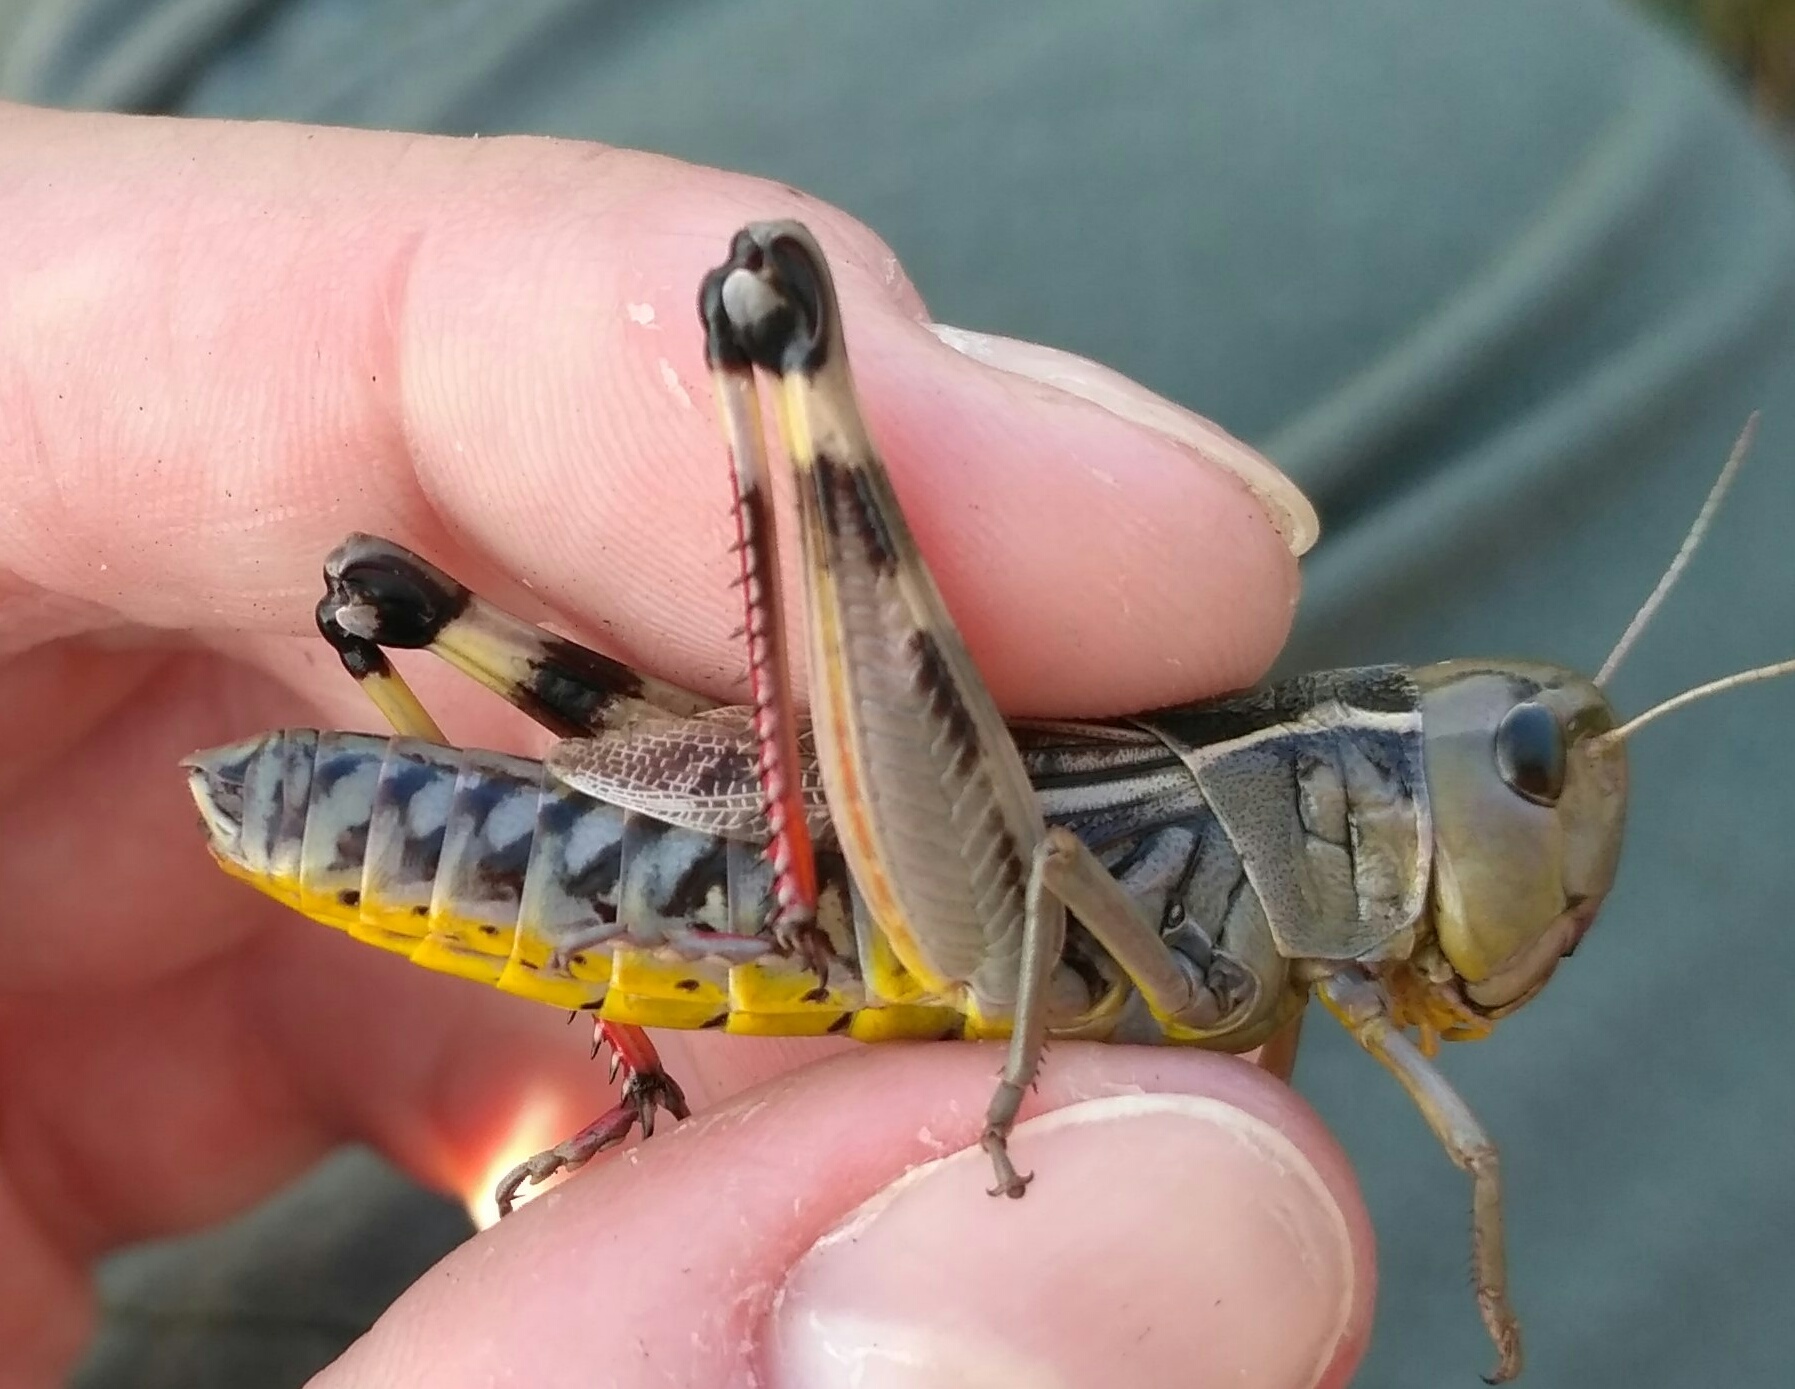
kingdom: Animalia
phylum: Arthropoda
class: Insecta
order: Orthoptera
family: Acrididae
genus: Arcyptera
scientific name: Arcyptera fusca
